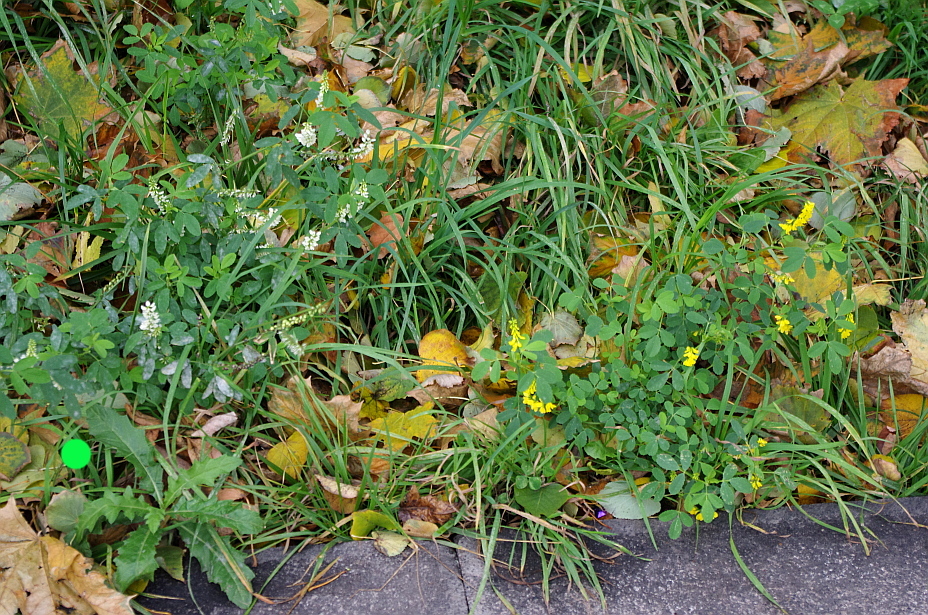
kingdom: Plantae
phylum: Tracheophyta
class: Magnoliopsida
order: Asterales
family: Asteraceae
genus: Cirsium
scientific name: Cirsium arvense
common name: Creeping thistle
